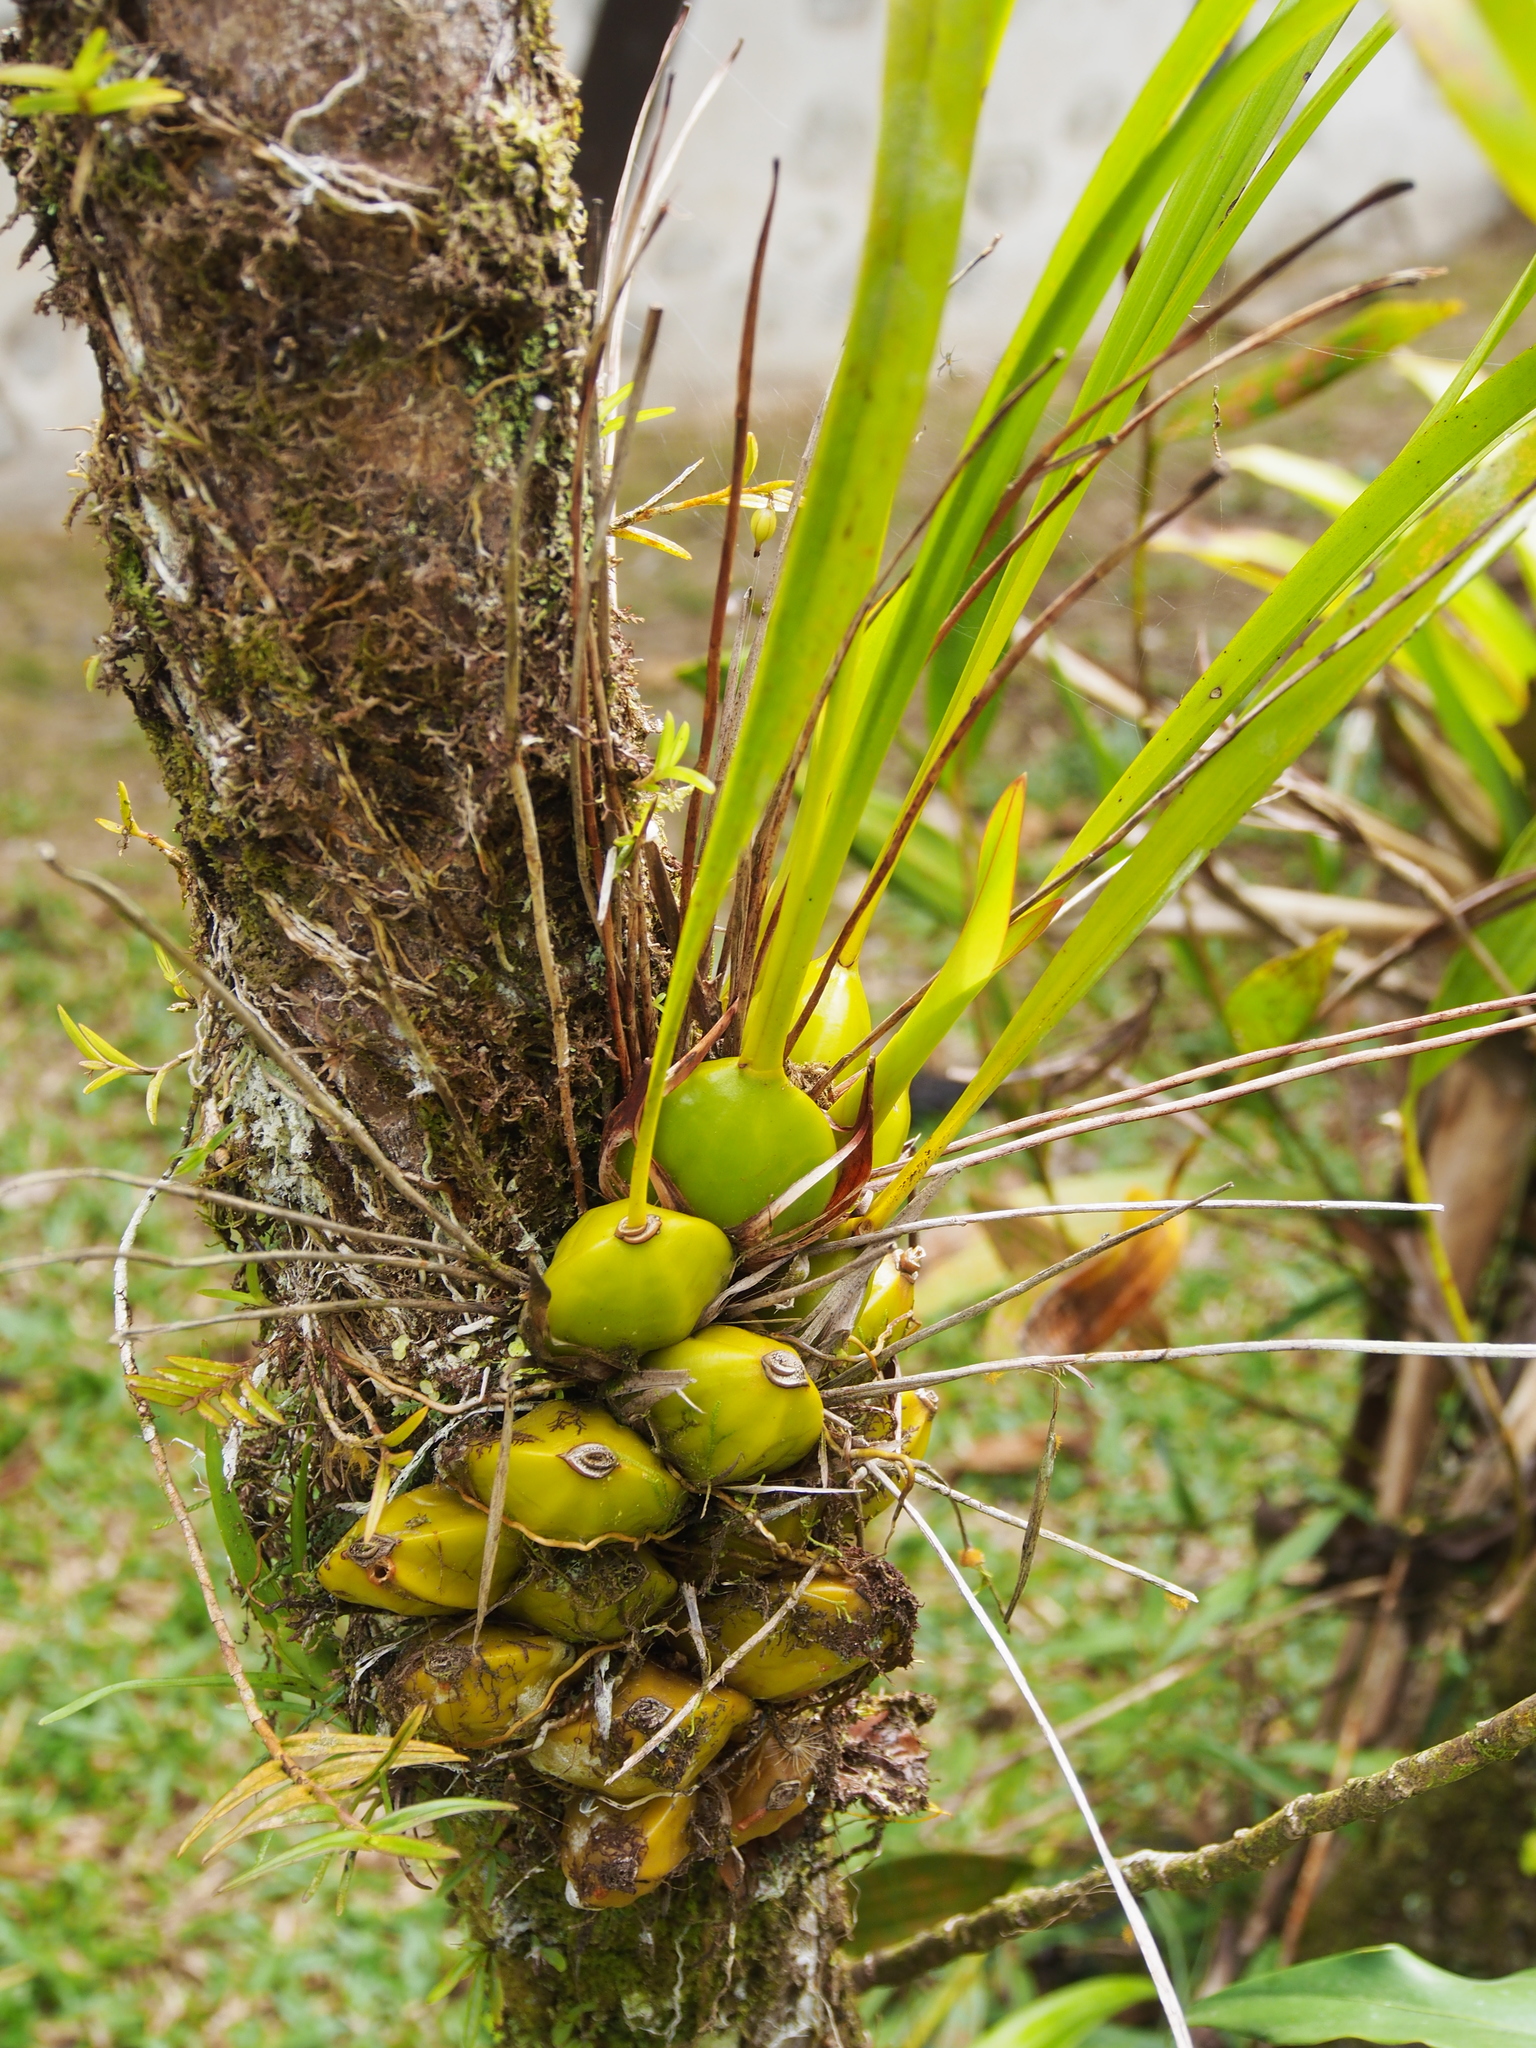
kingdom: Plantae
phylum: Tracheophyta
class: Liliopsida
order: Asparagales
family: Orchidaceae
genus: Maxillaria
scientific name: Maxillaria egertoniana
